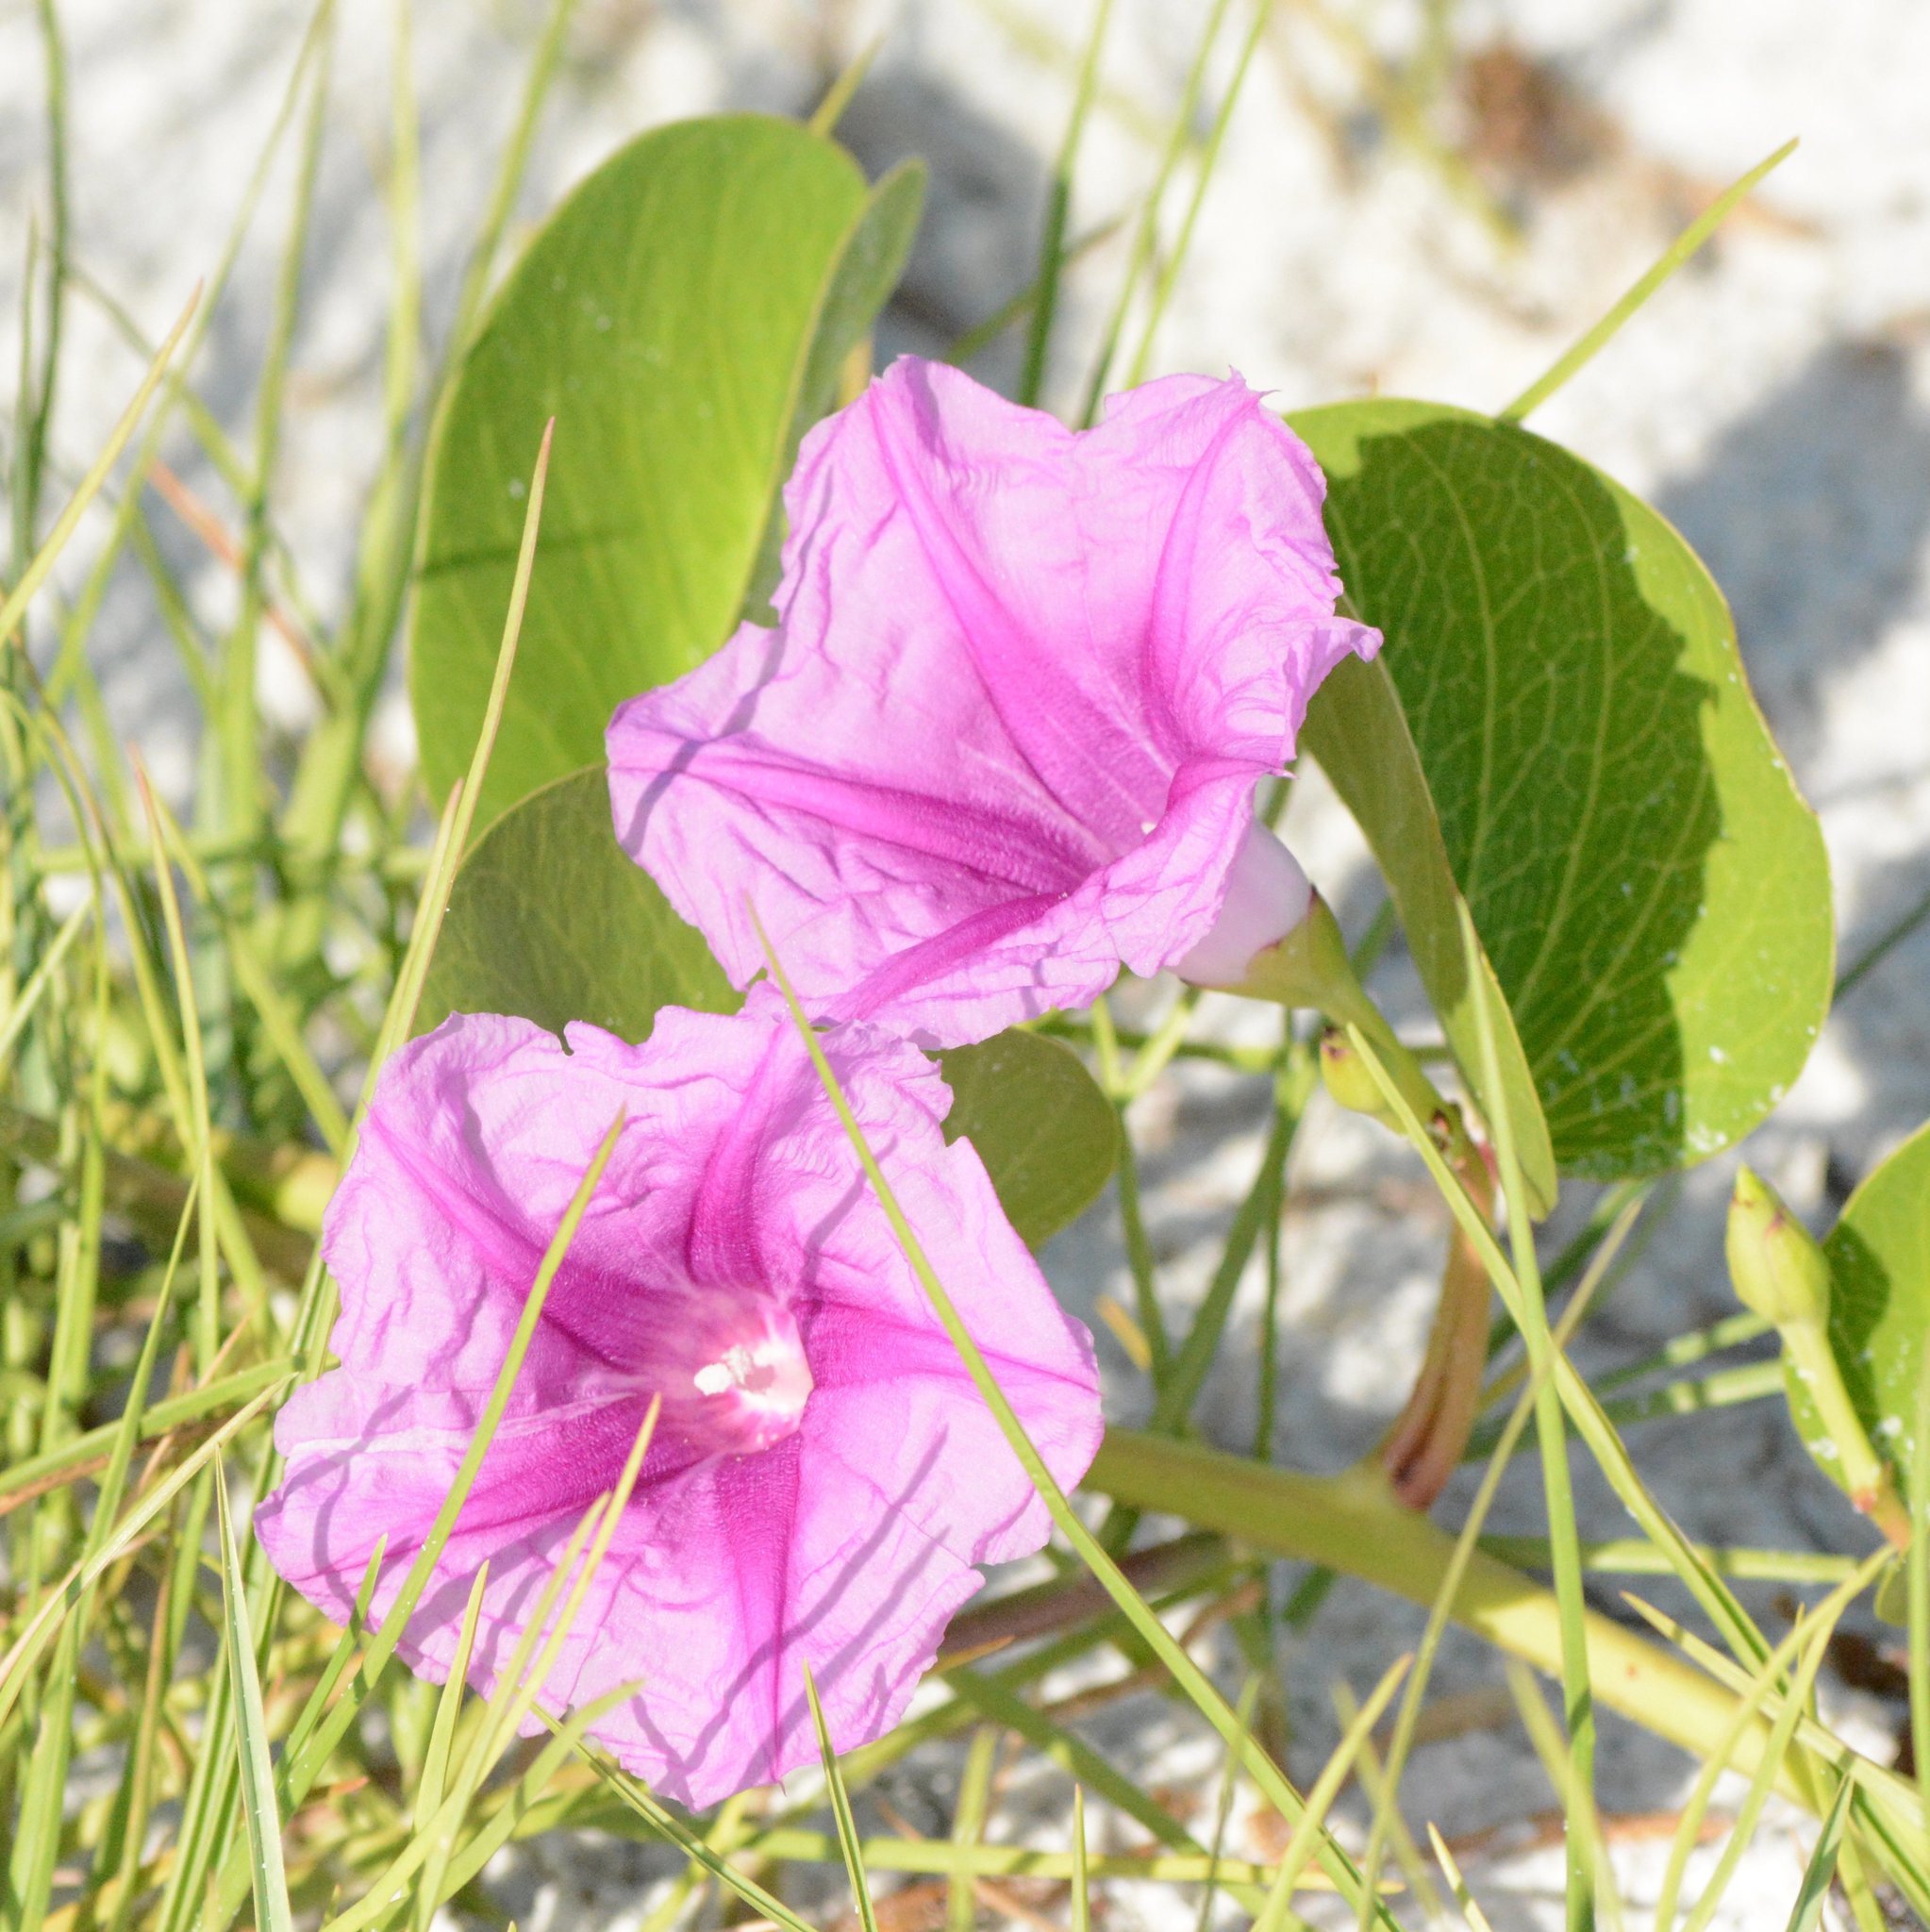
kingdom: Plantae
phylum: Tracheophyta
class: Magnoliopsida
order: Solanales
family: Convolvulaceae
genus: Ipomoea
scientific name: Ipomoea pes-caprae
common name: Beach morning glory
